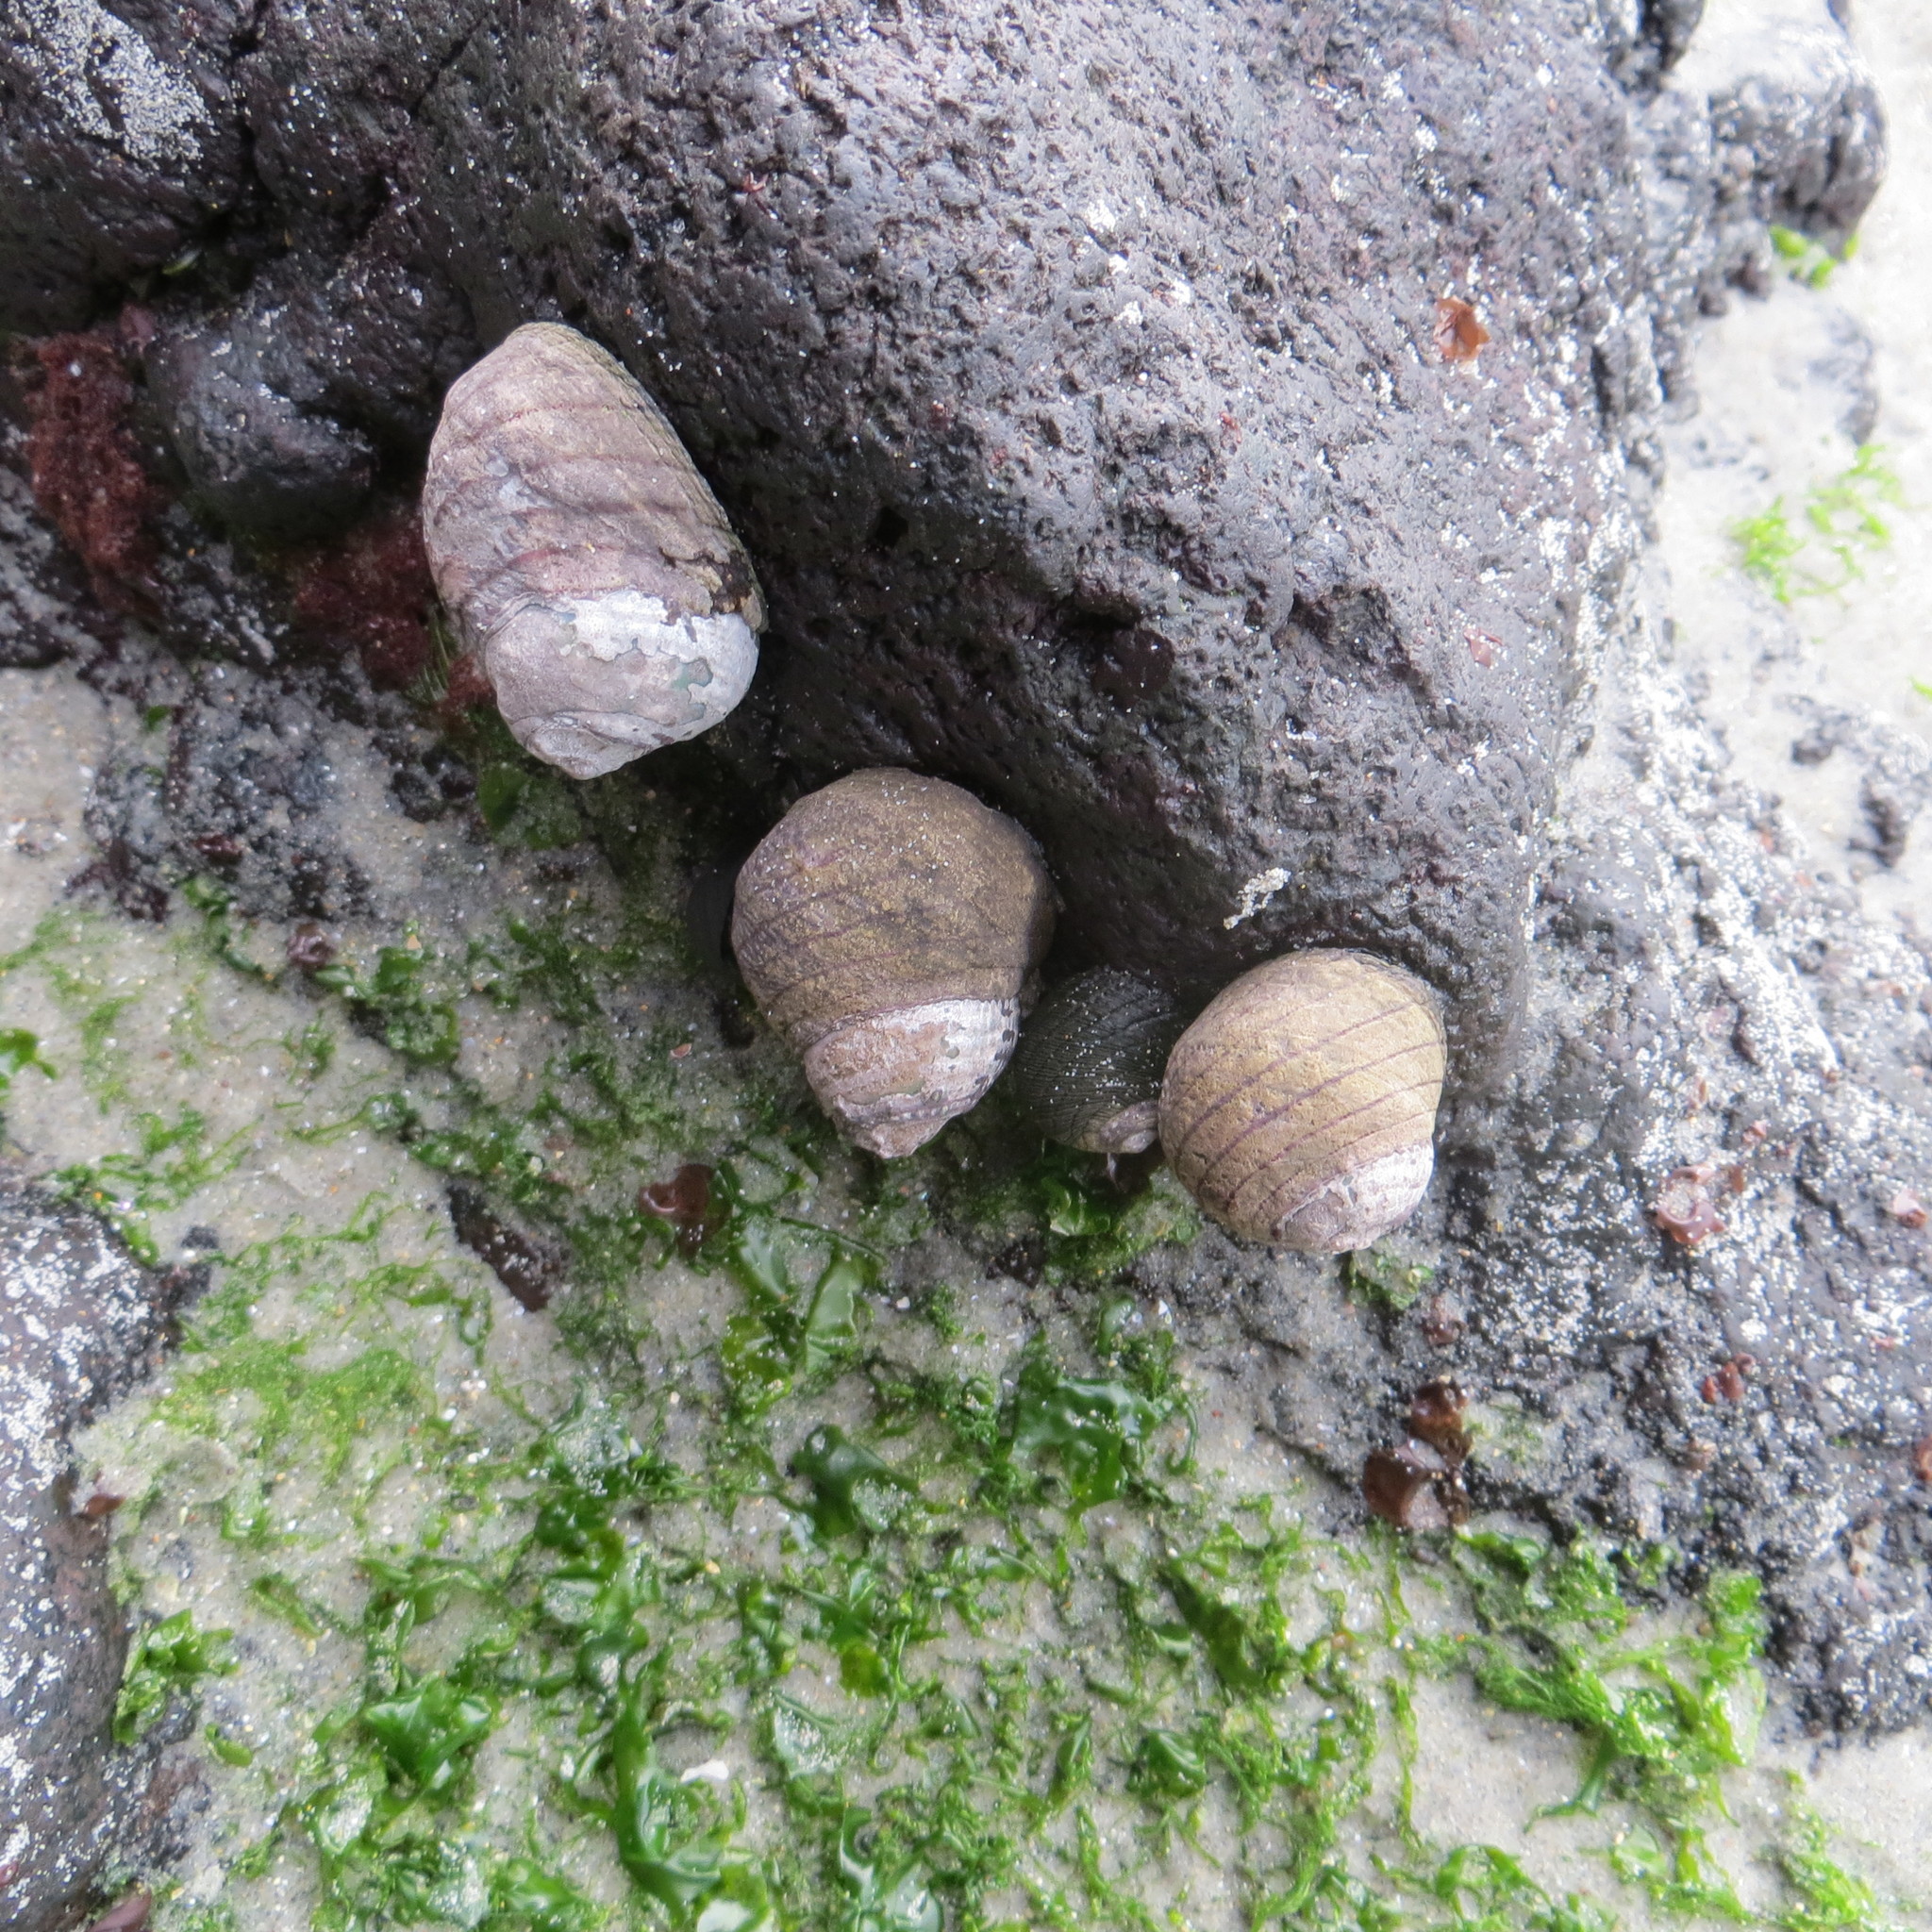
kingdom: Animalia
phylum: Mollusca
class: Gastropoda
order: Trochida
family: Trochidae
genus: Diloma
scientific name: Diloma aethiops
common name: Scorched monodont
